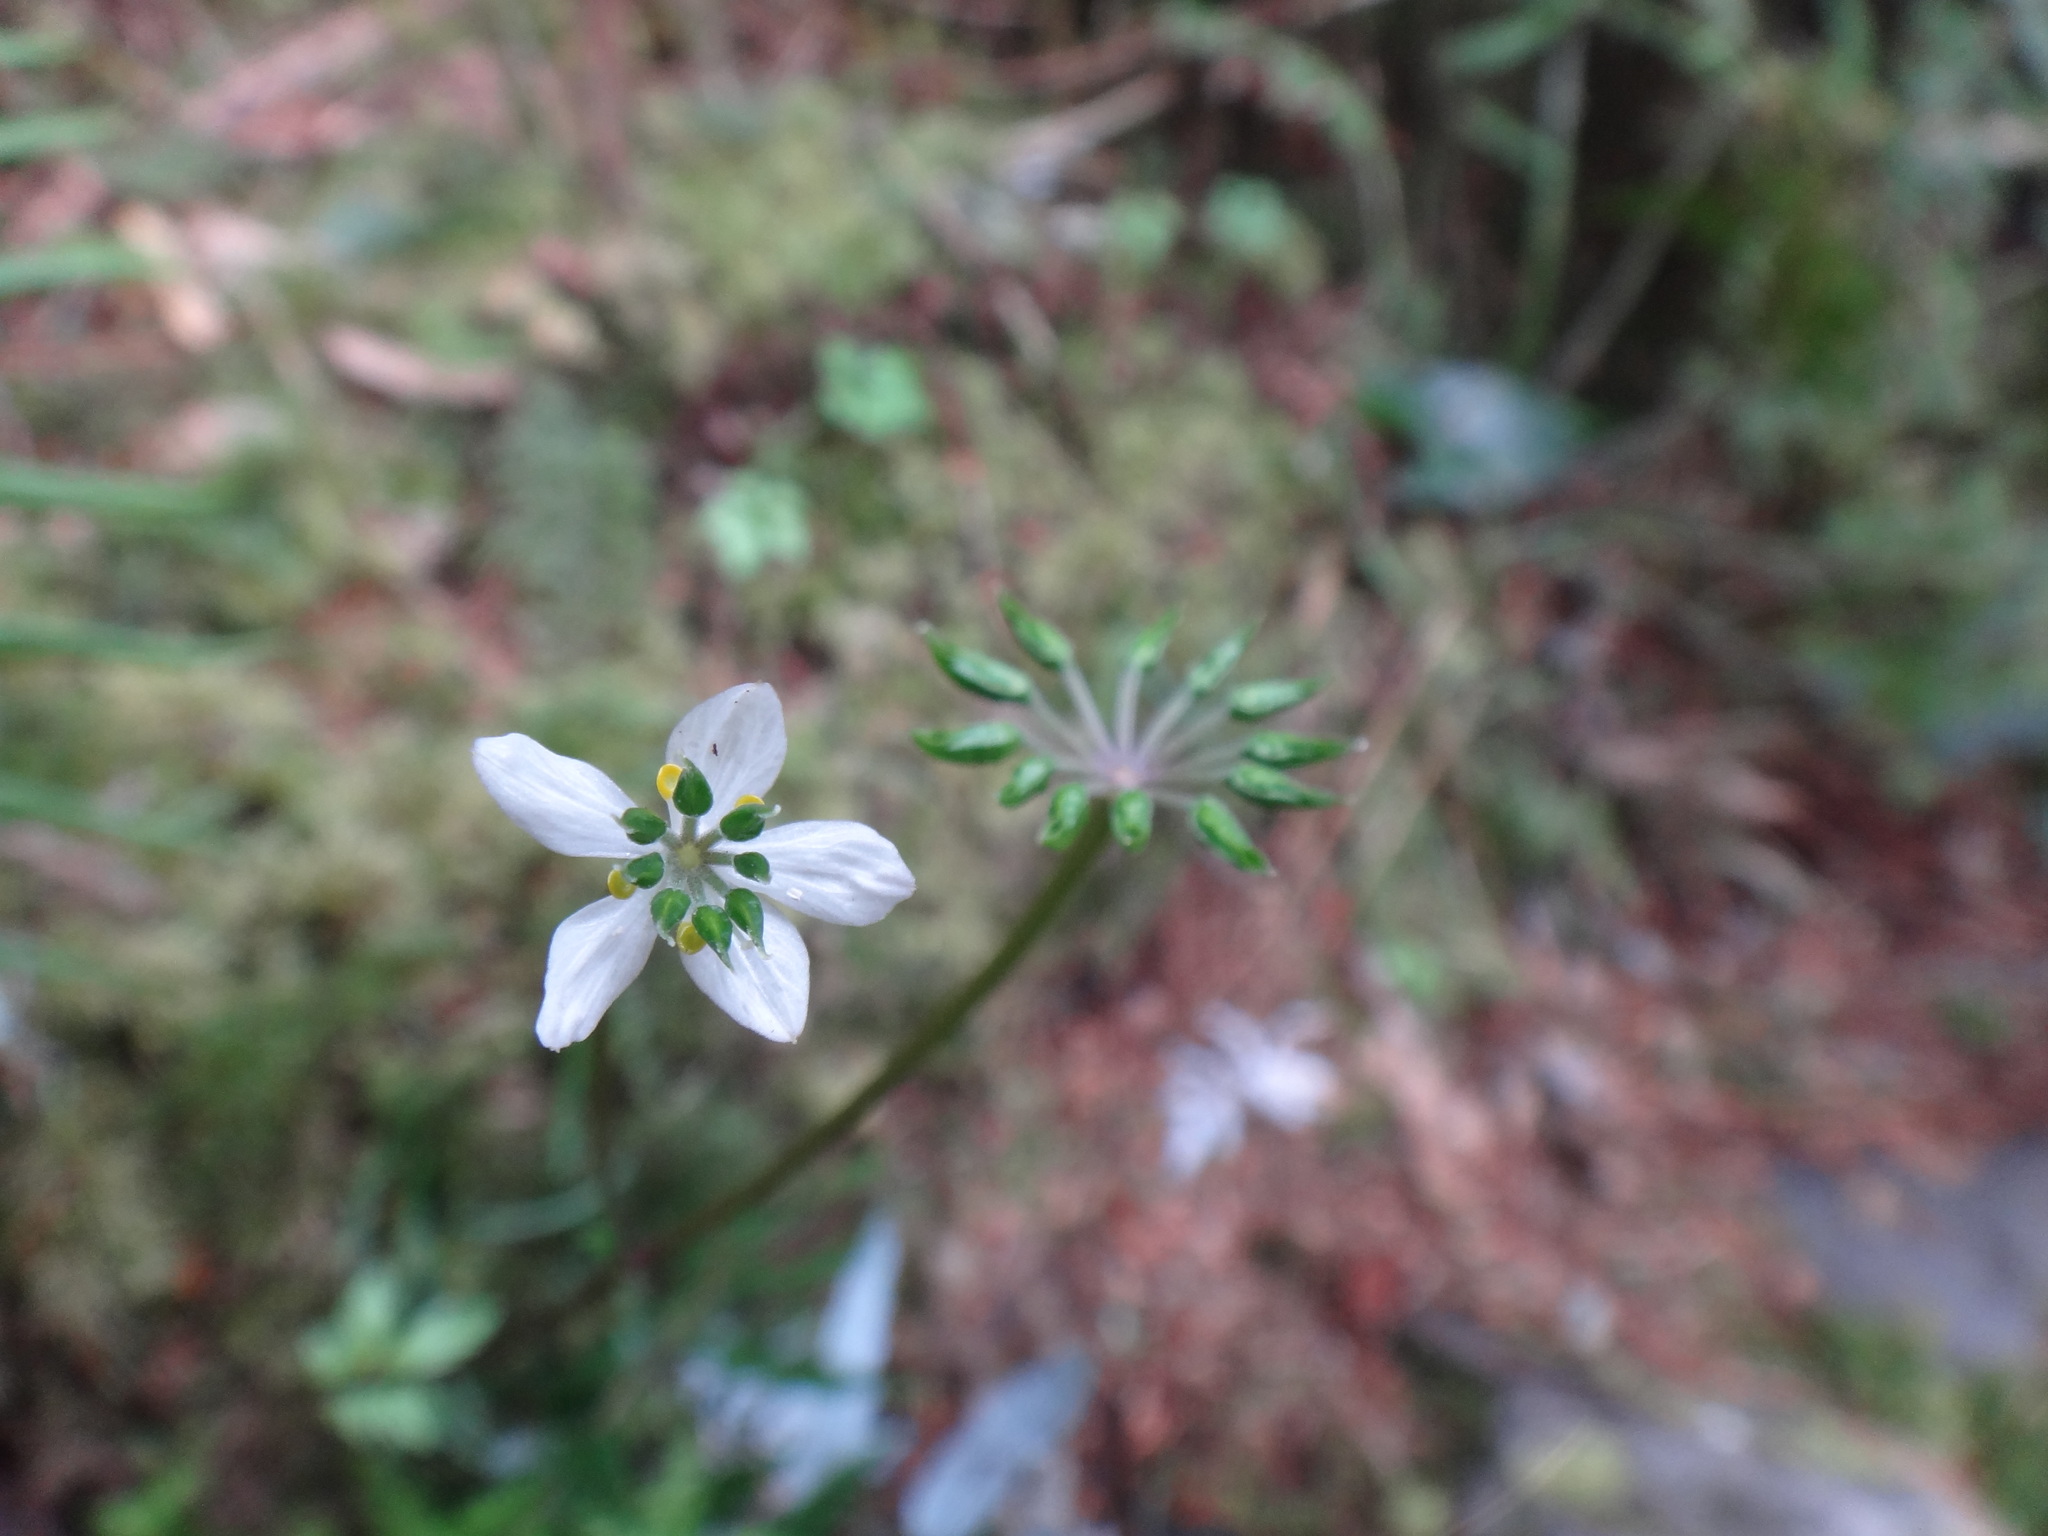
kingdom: Plantae
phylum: Tracheophyta
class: Magnoliopsida
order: Ranunculales
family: Ranunculaceae
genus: Coptis
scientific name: Coptis quinquefolia
